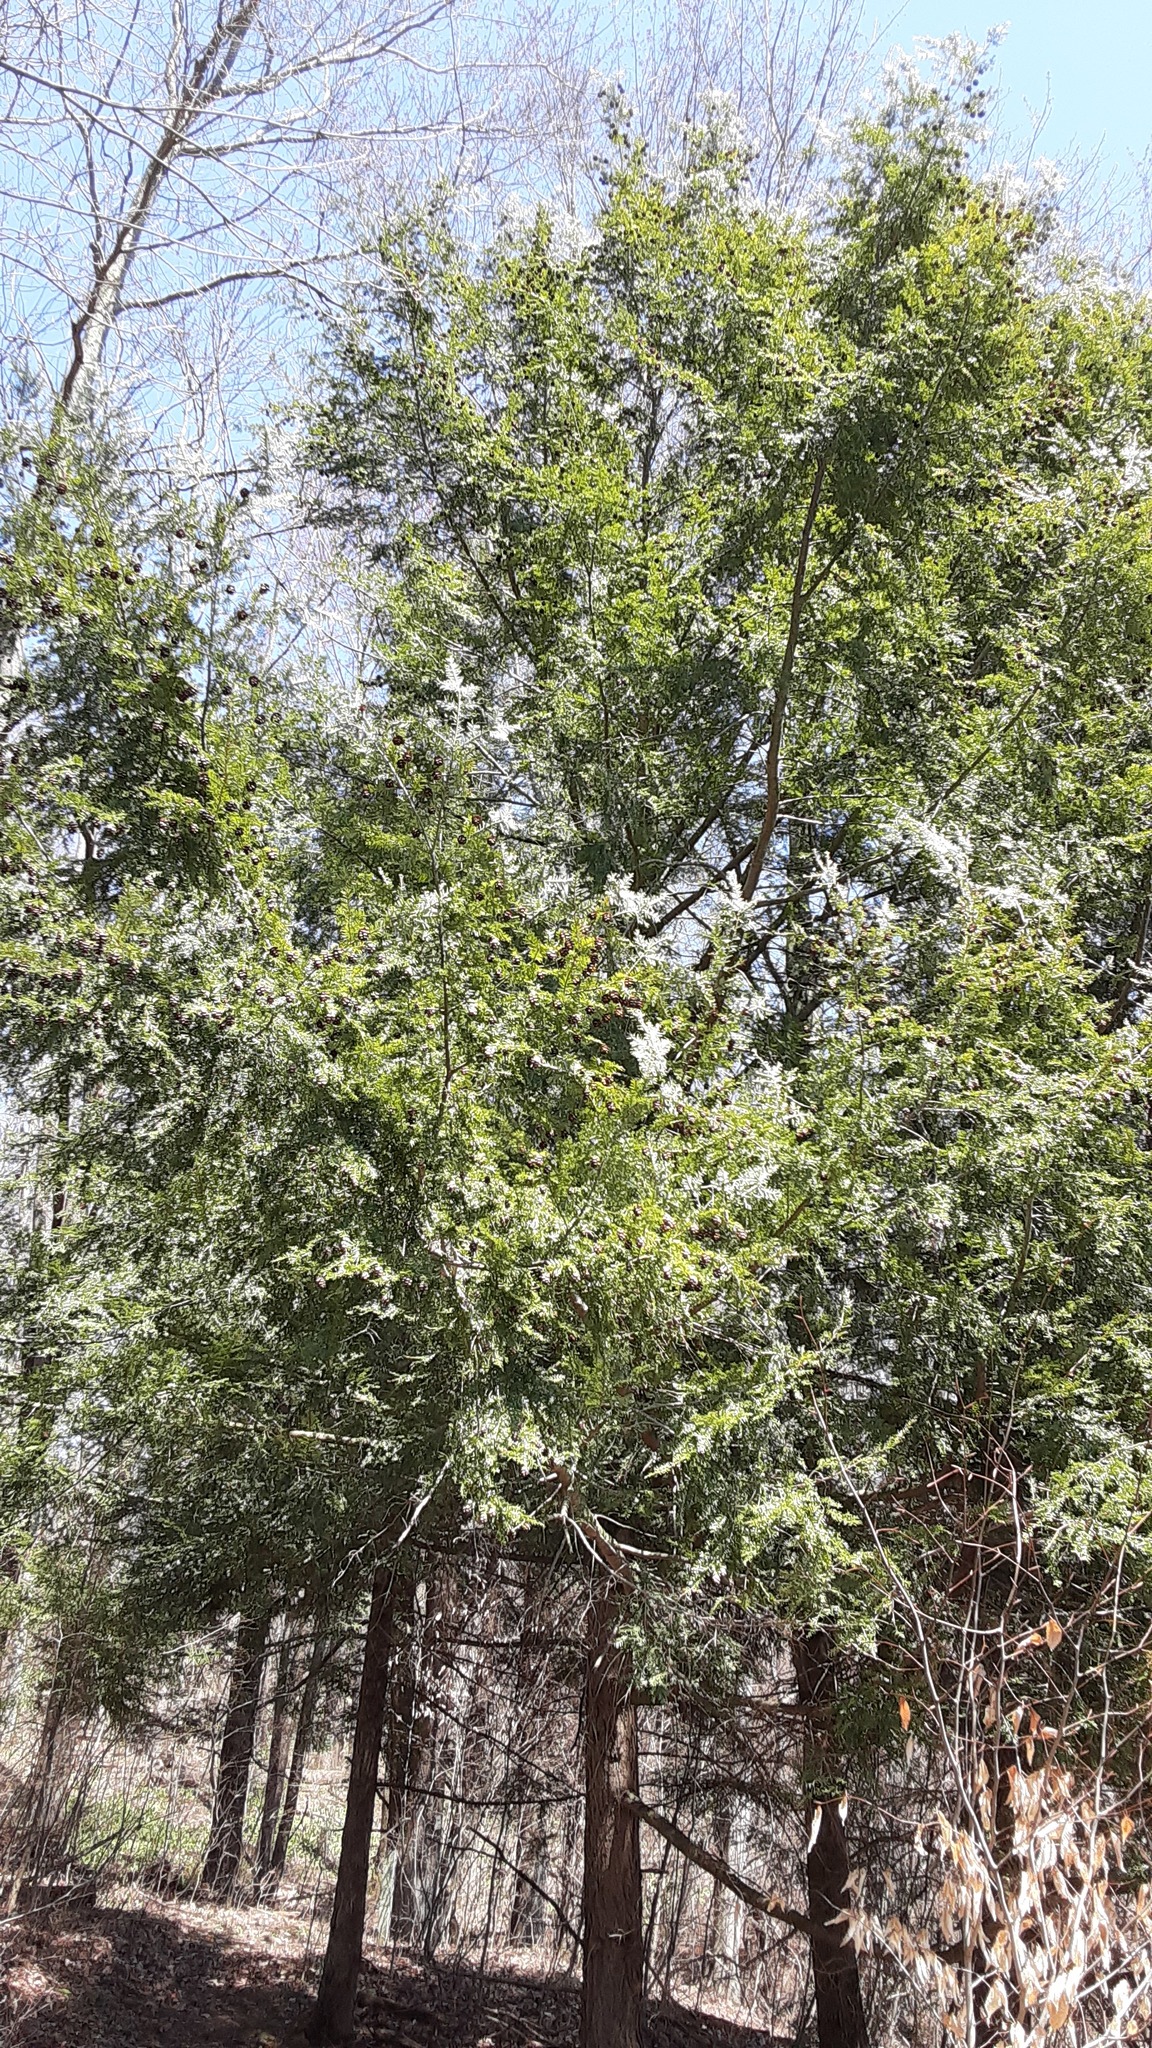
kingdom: Plantae
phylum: Tracheophyta
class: Pinopsida
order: Pinales
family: Pinaceae
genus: Tsuga
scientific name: Tsuga canadensis
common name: Eastern hemlock
